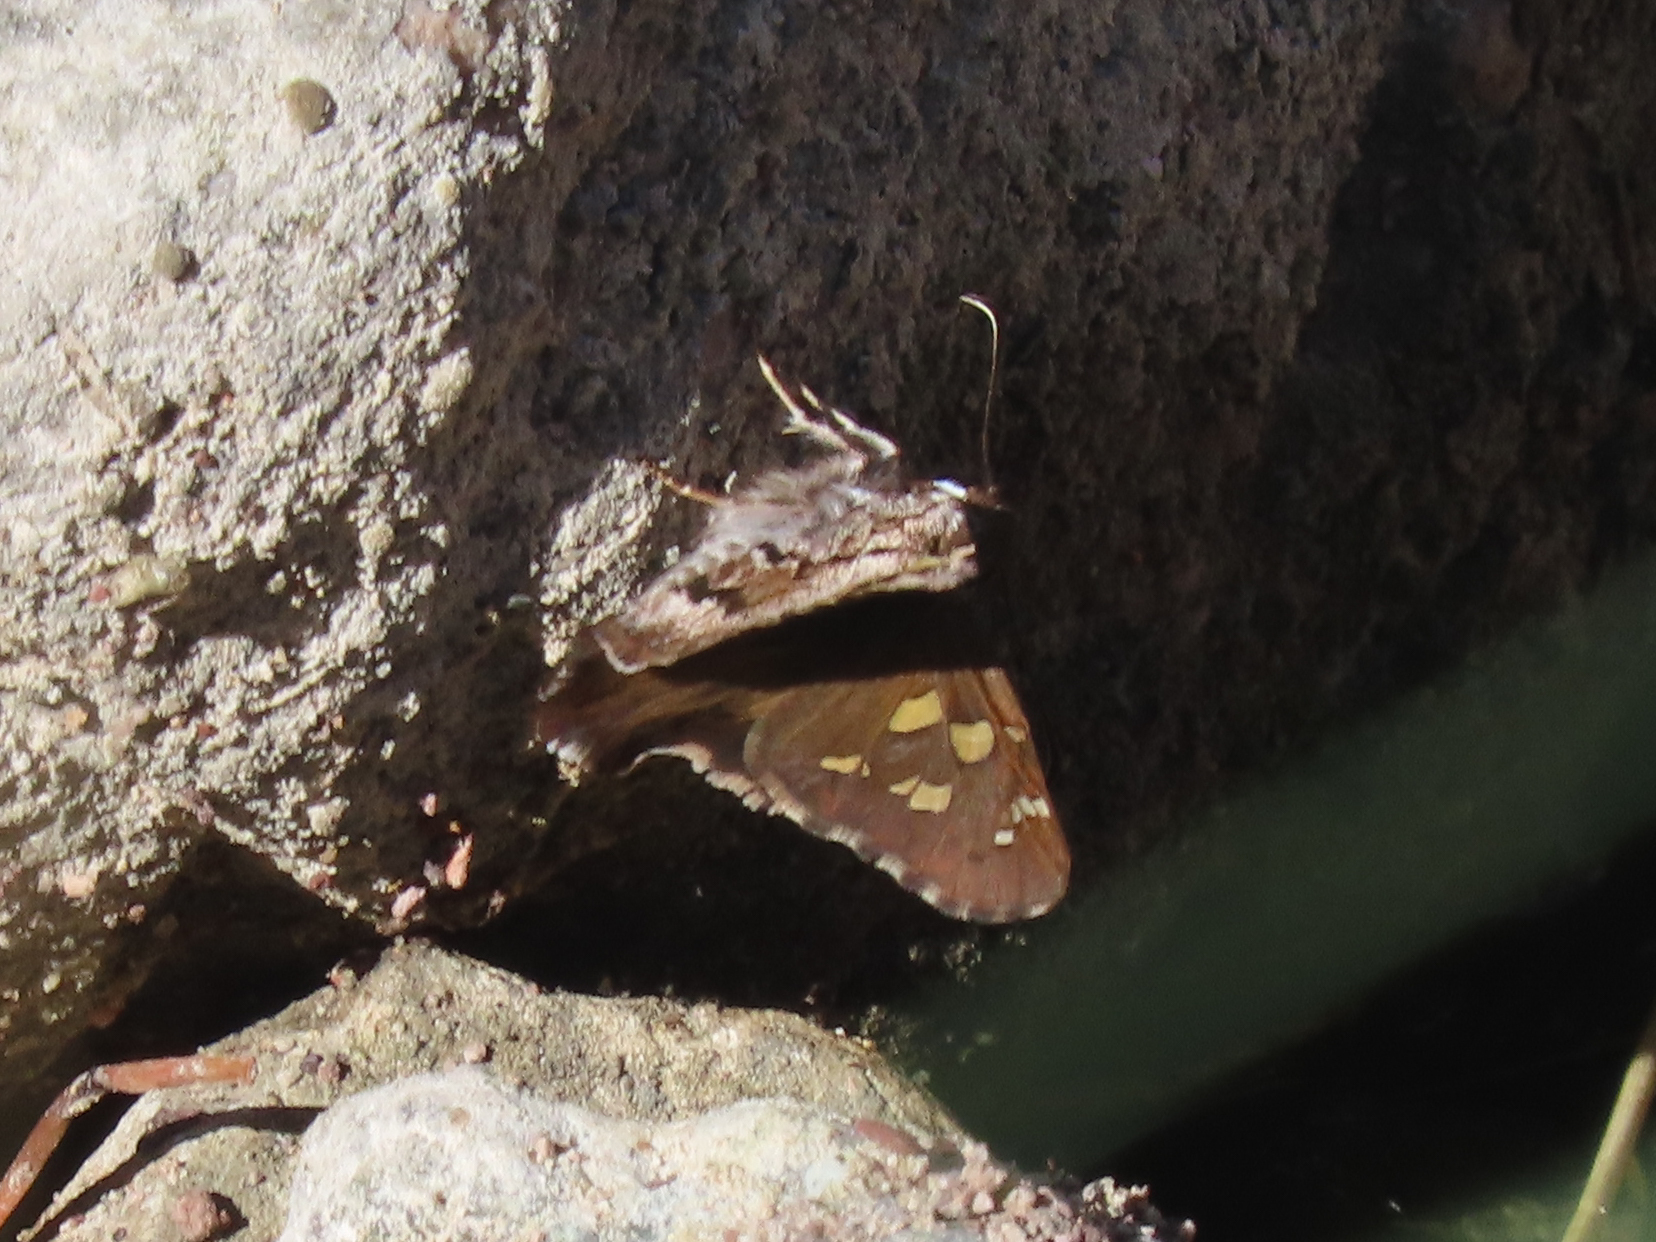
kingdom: Animalia
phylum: Arthropoda
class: Insecta
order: Lepidoptera
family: Hesperiidae
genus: Zestusa
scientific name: Zestusa dorus
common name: Short-tailed skipper
